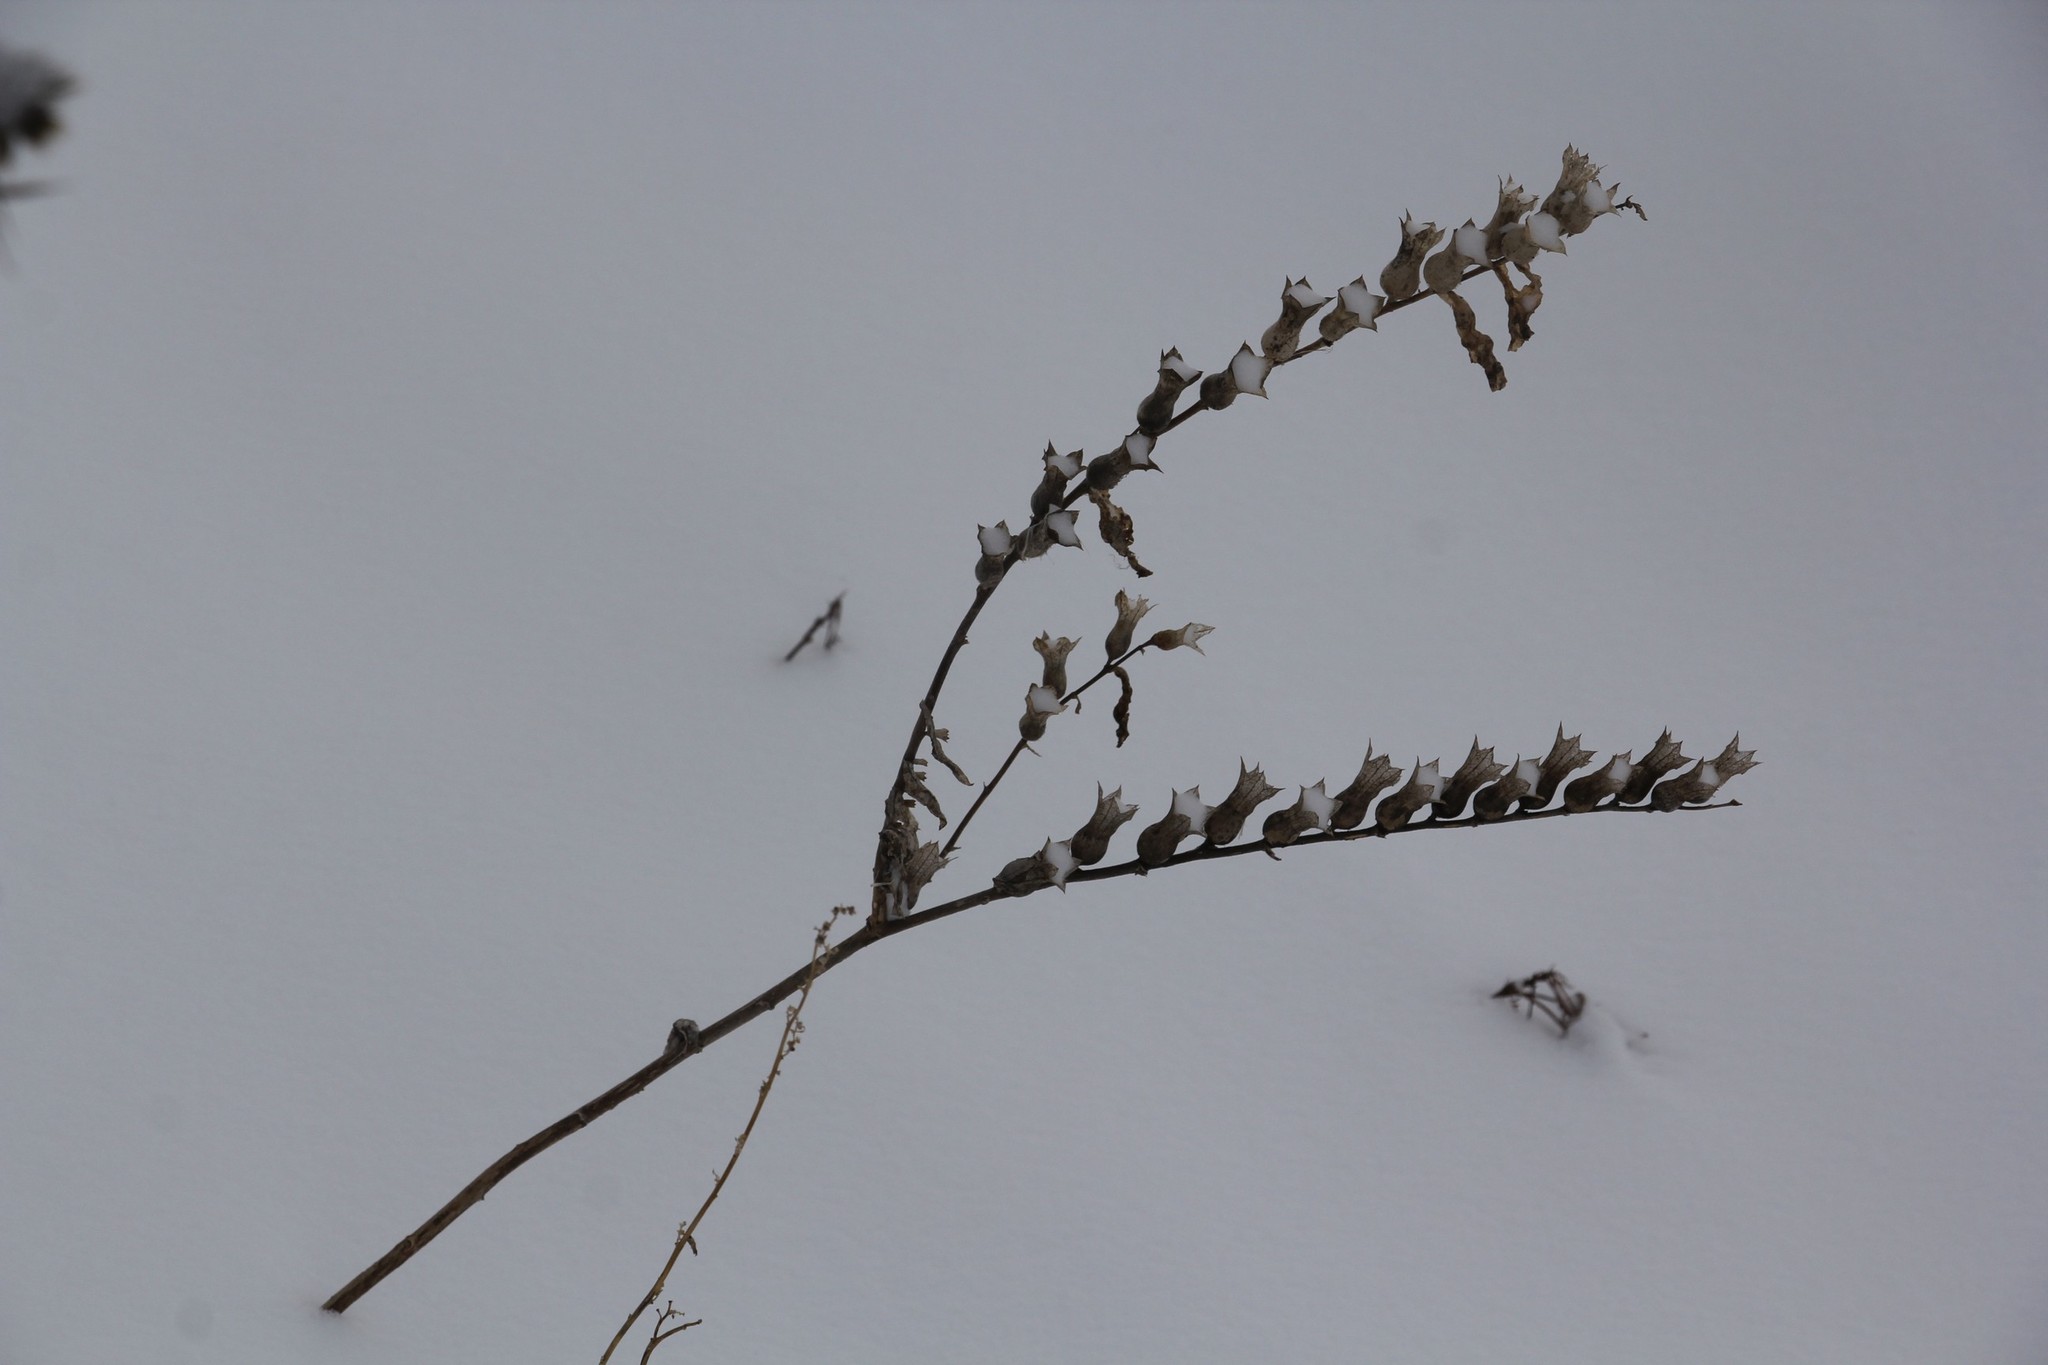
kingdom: Plantae
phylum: Tracheophyta
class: Magnoliopsida
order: Solanales
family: Solanaceae
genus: Hyoscyamus
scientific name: Hyoscyamus niger
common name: Henbane
